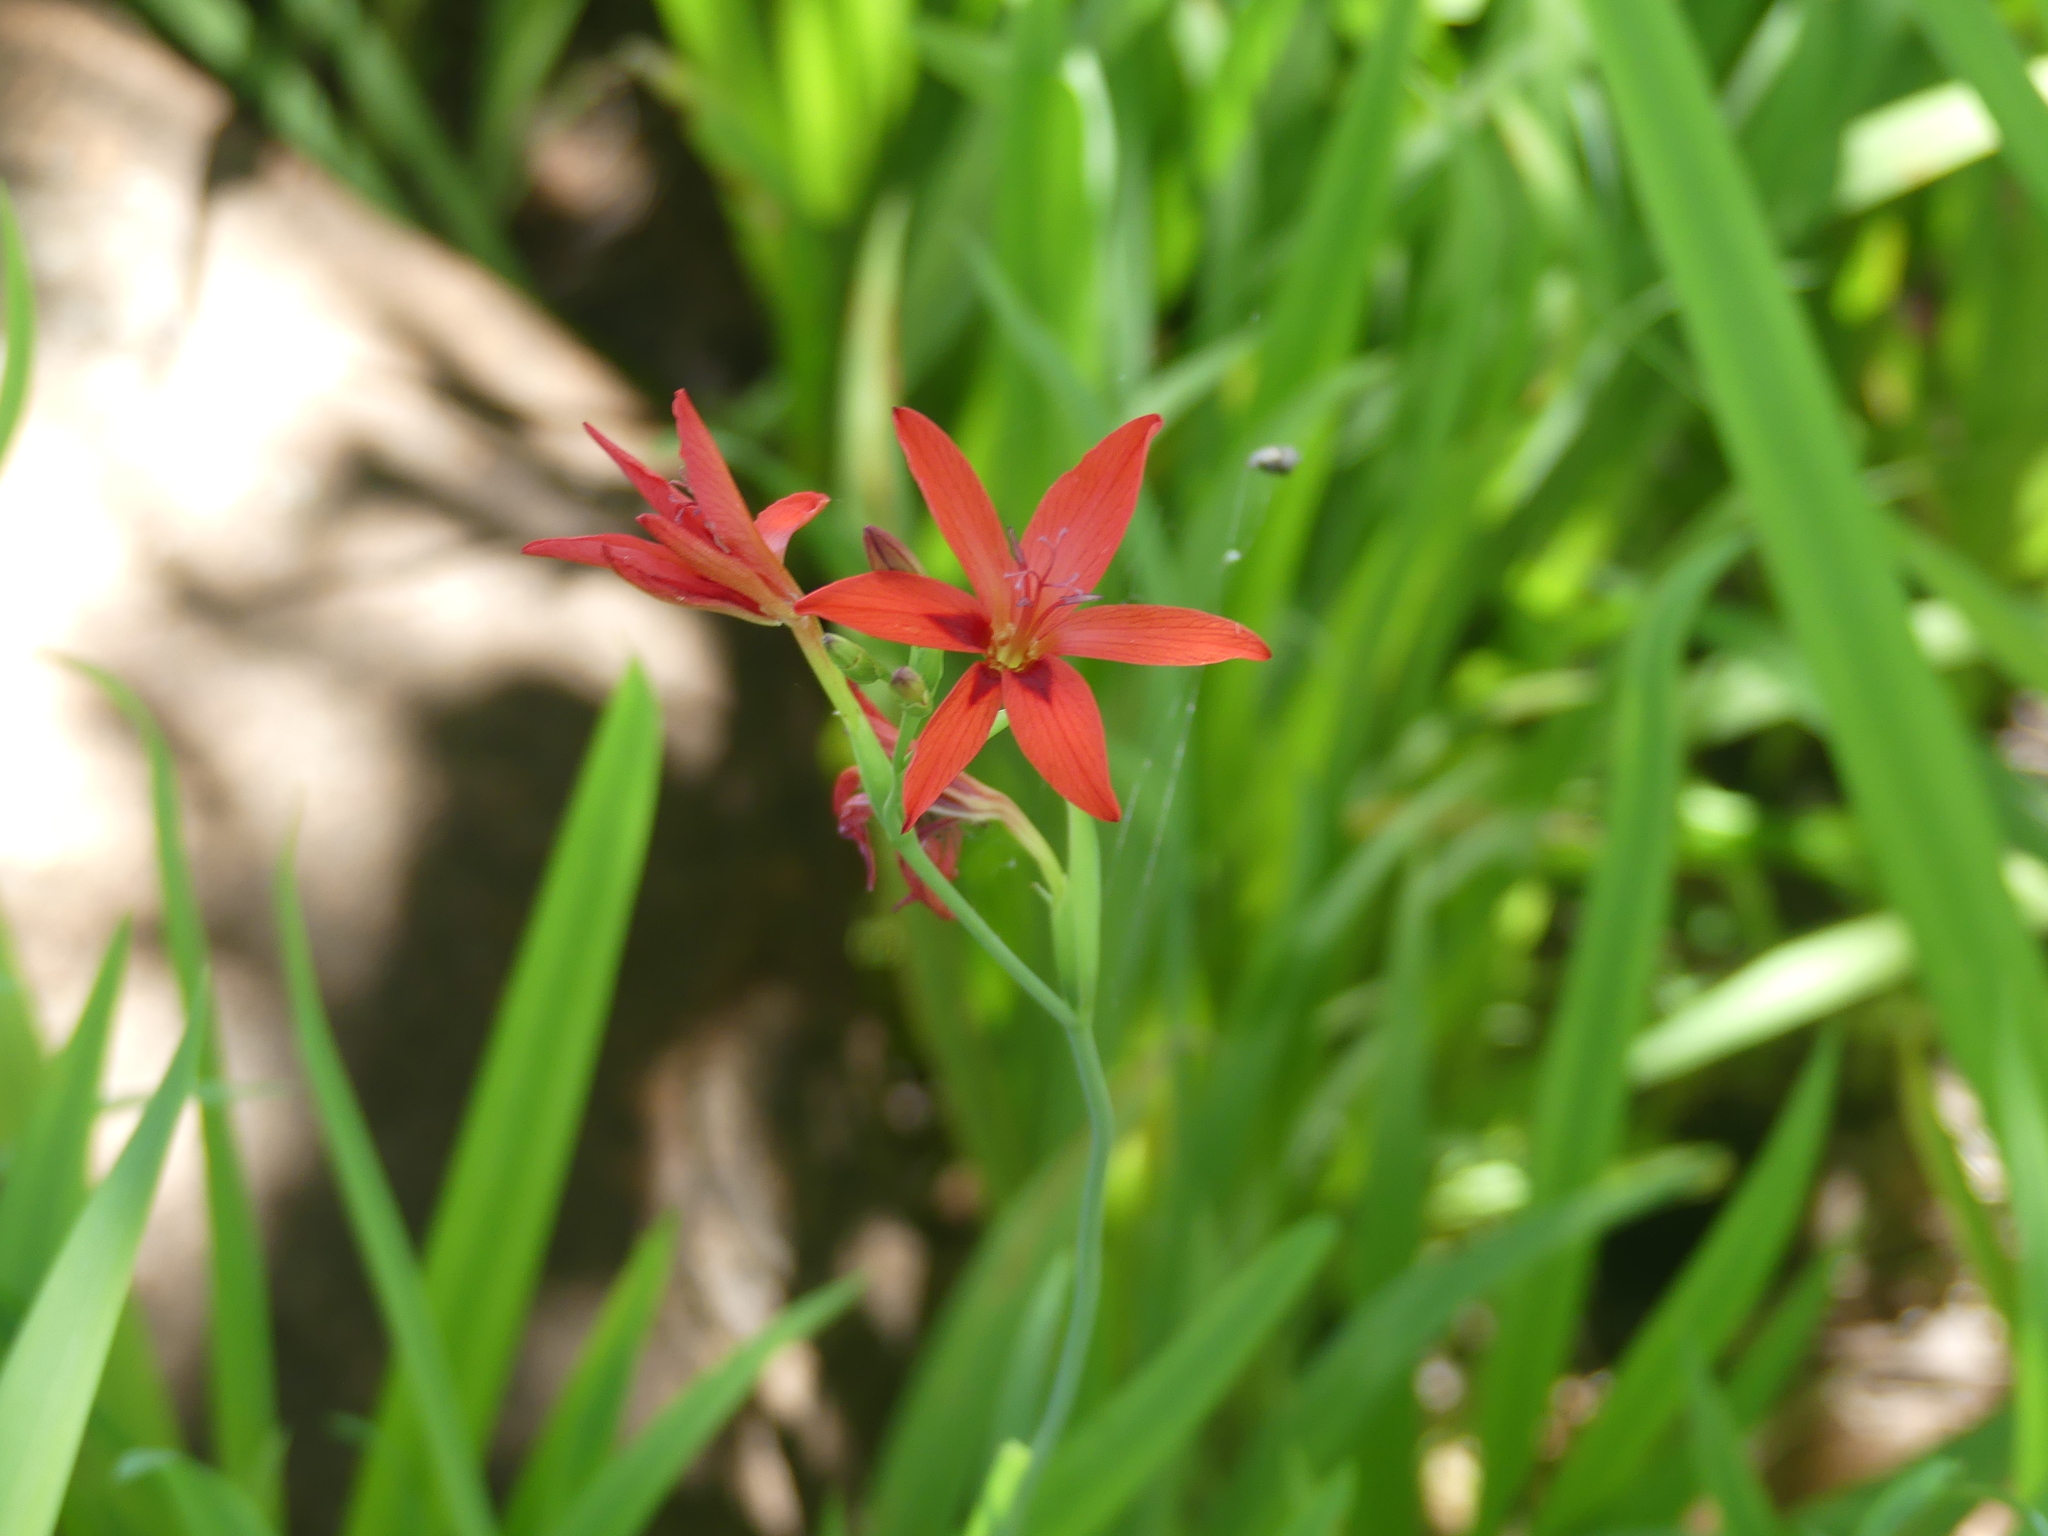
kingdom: Plantae
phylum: Tracheophyta
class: Liliopsida
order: Asparagales
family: Iridaceae
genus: Freesia
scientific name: Freesia grandiflora
